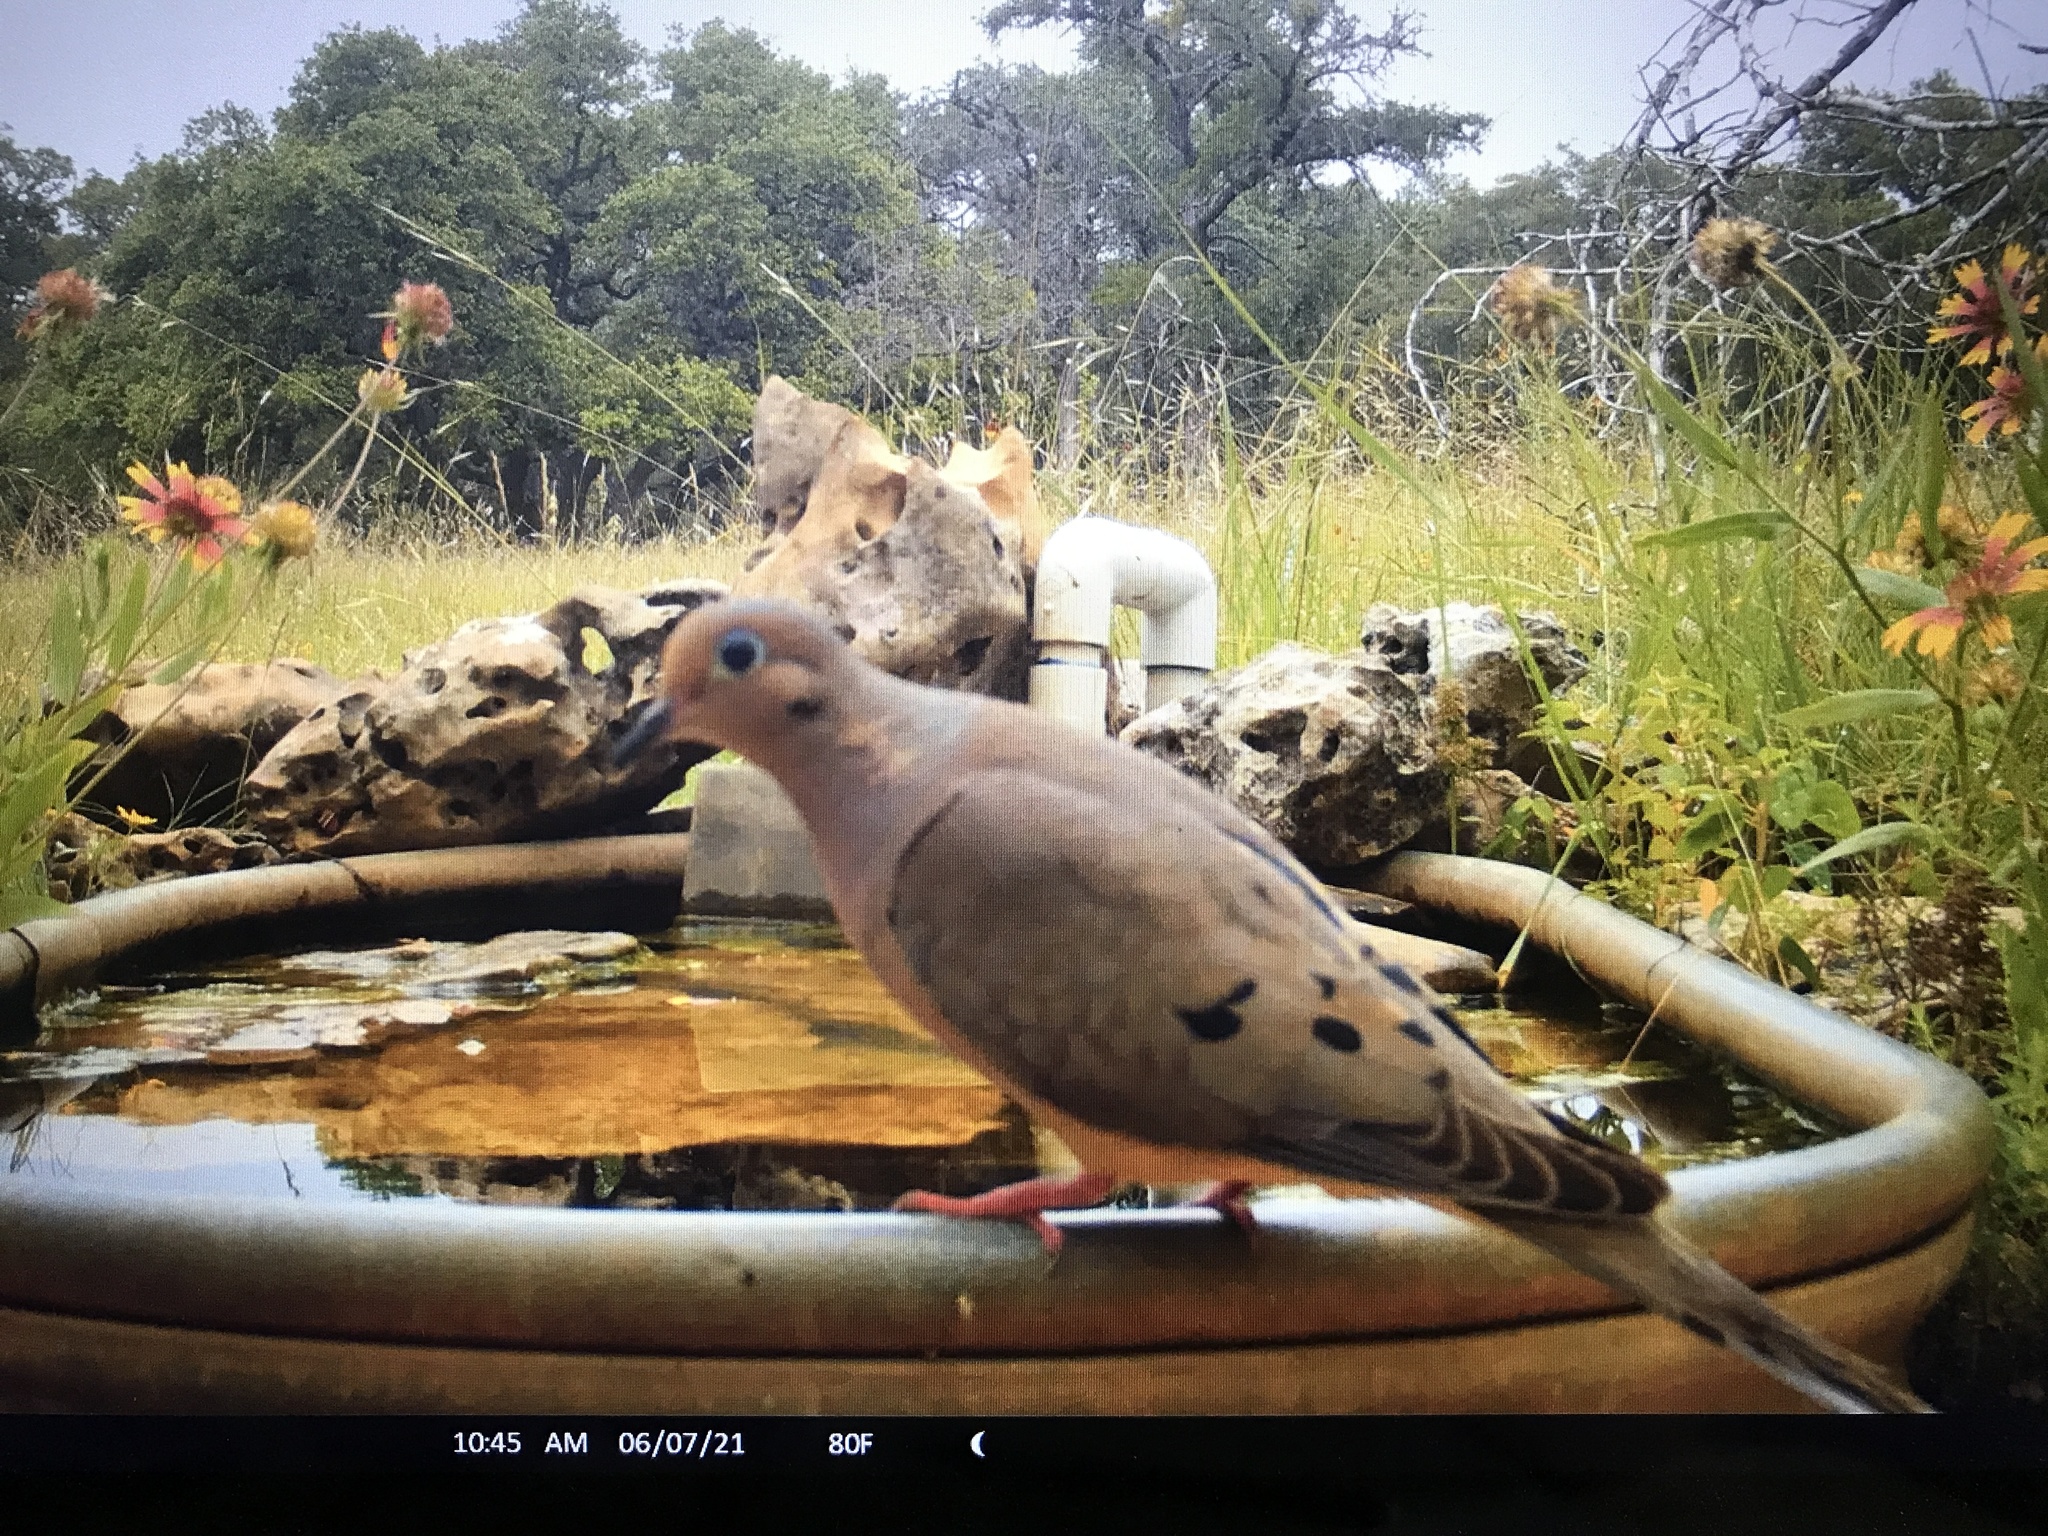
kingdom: Animalia
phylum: Chordata
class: Aves
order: Columbiformes
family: Columbidae
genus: Zenaida
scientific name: Zenaida macroura
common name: Mourning dove
